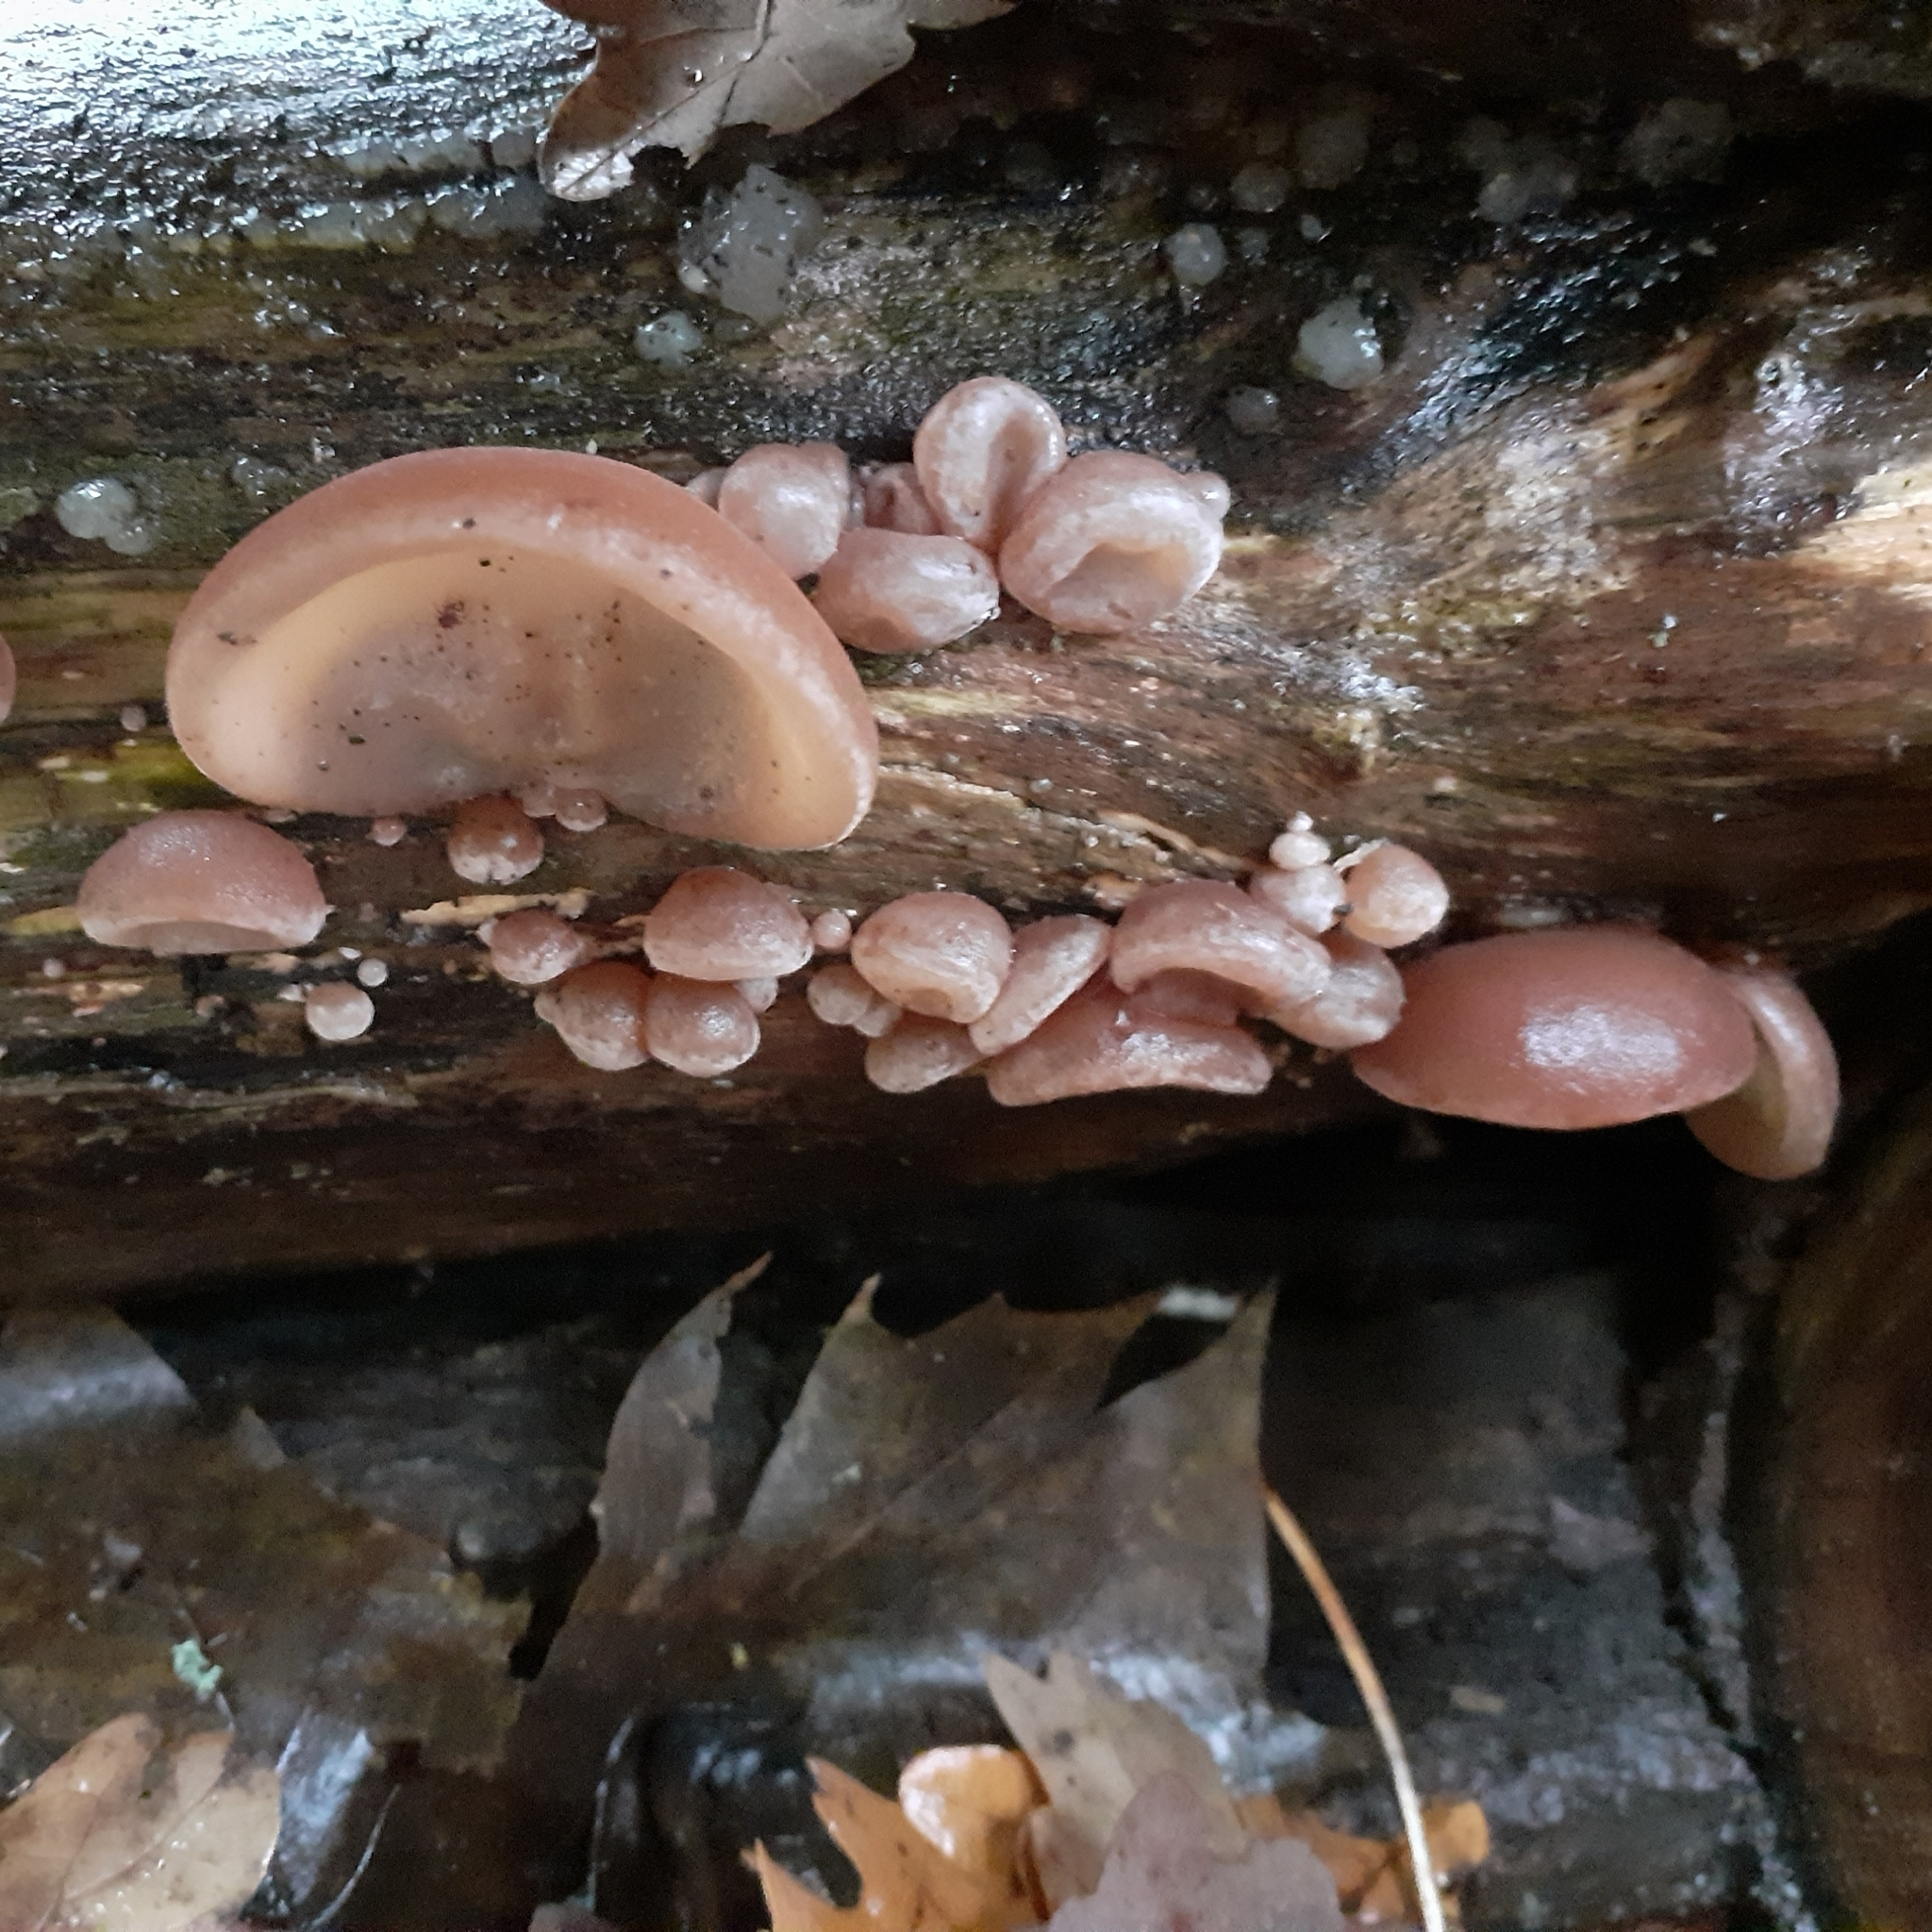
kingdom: Fungi
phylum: Basidiomycota
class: Agaricomycetes
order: Auriculariales
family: Auriculariaceae
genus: Auricularia
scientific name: Auricularia auricula-judae
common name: Jelly ear
